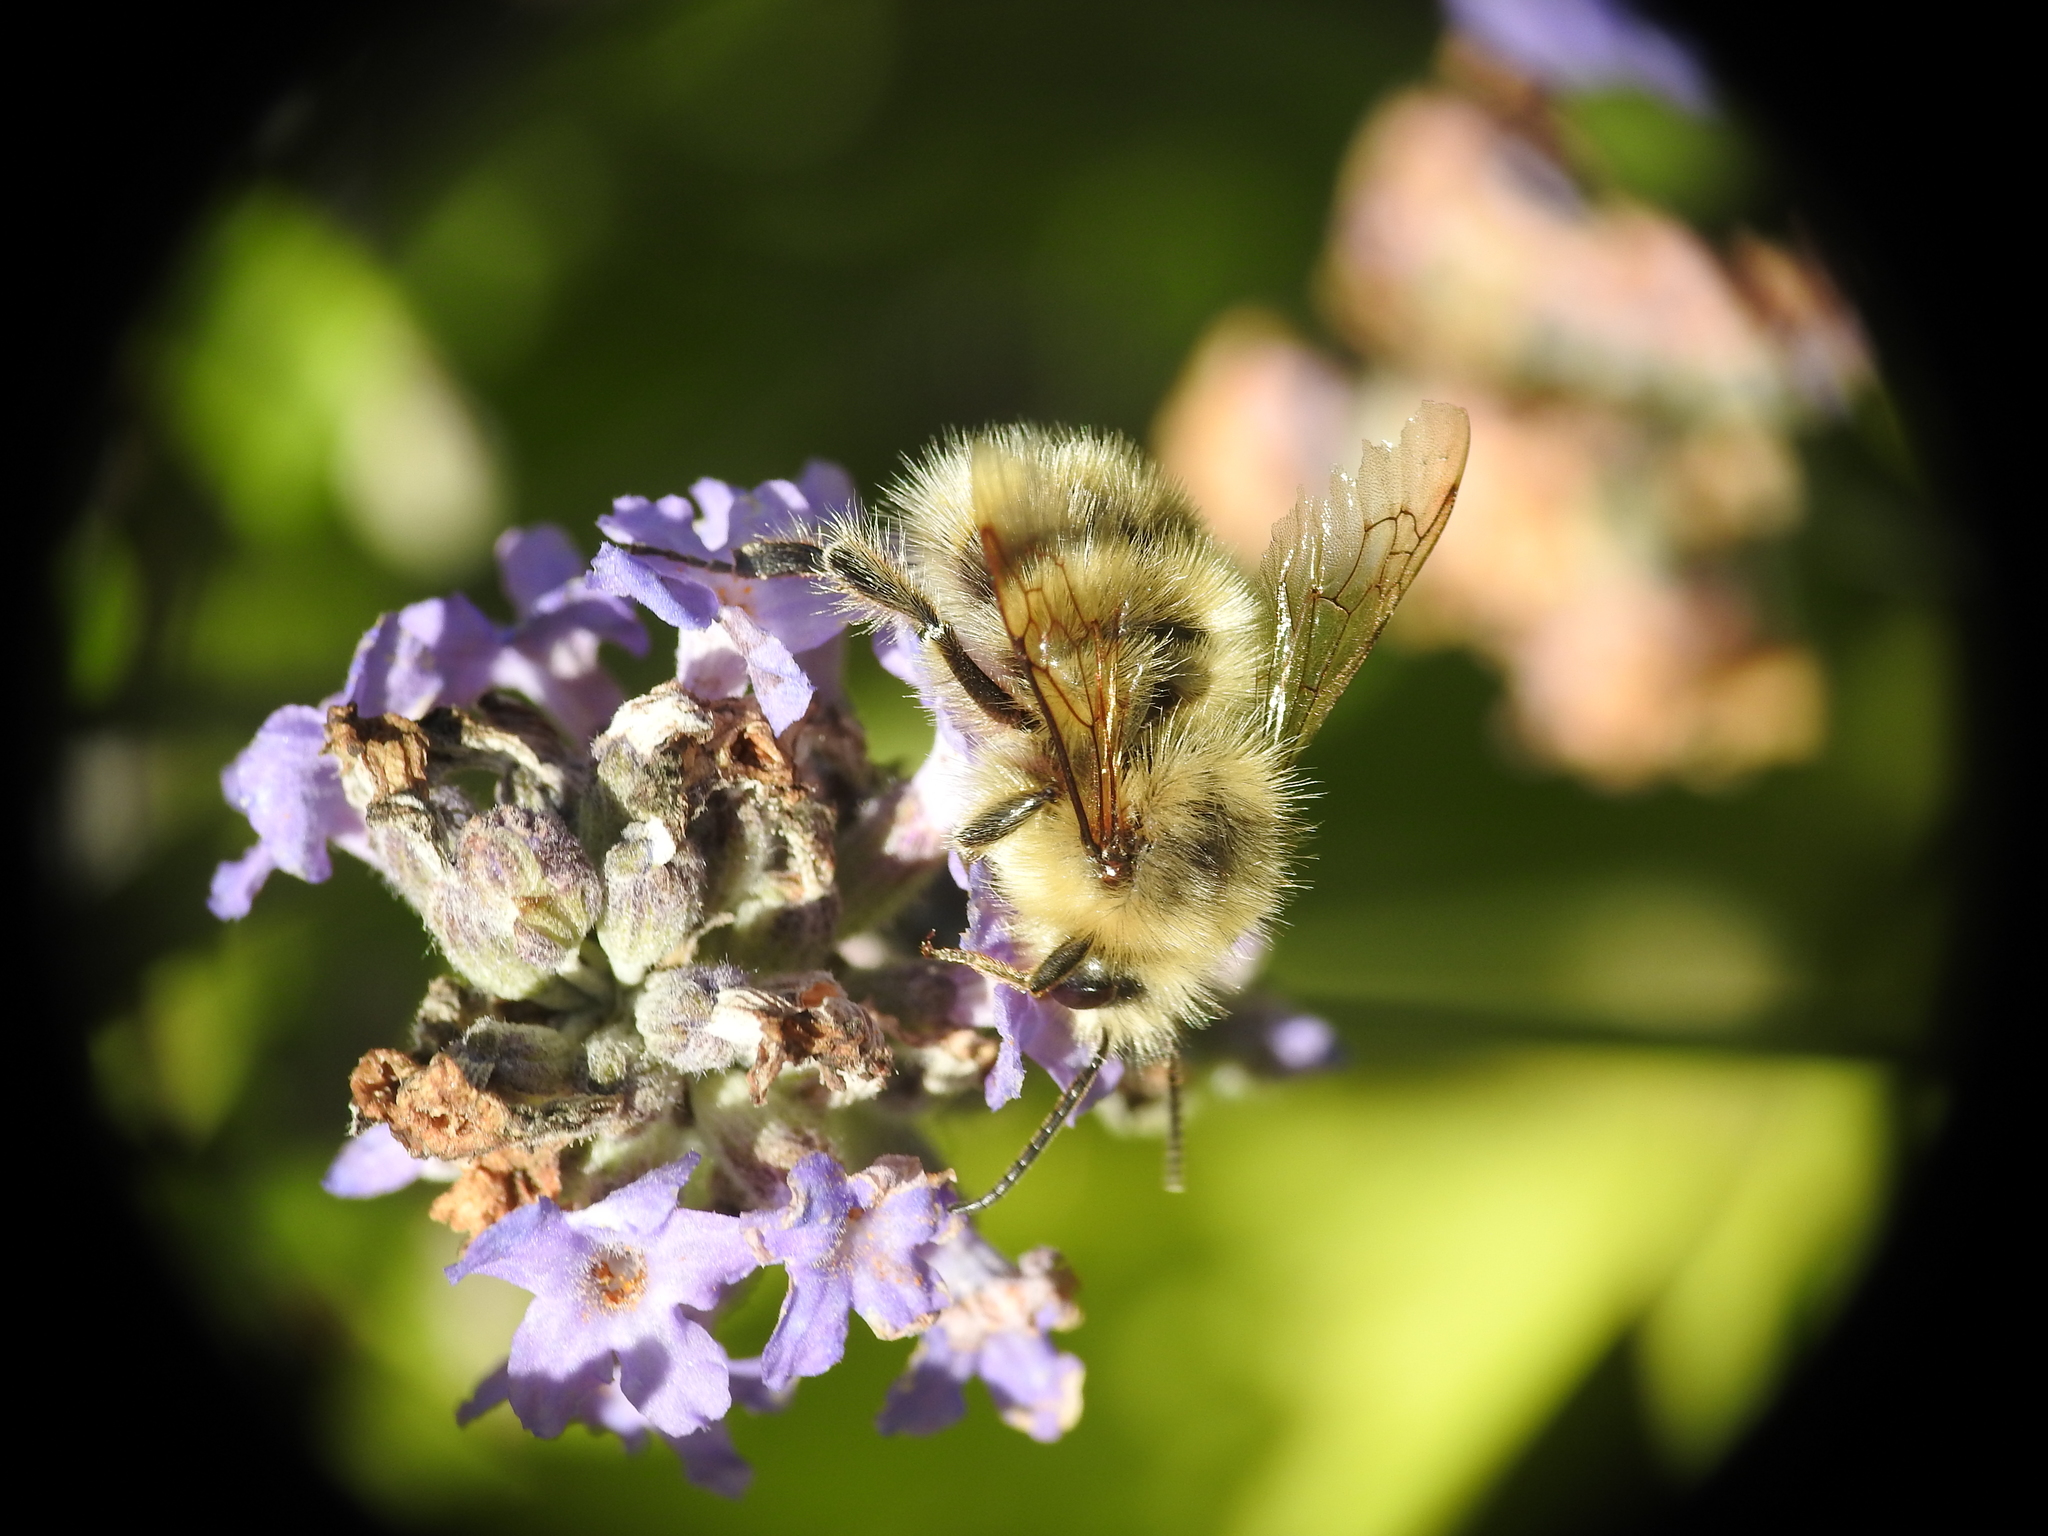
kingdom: Animalia
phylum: Arthropoda
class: Insecta
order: Hymenoptera
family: Apidae
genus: Bombus
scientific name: Bombus flavifrons
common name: Yellow head bumble bee
